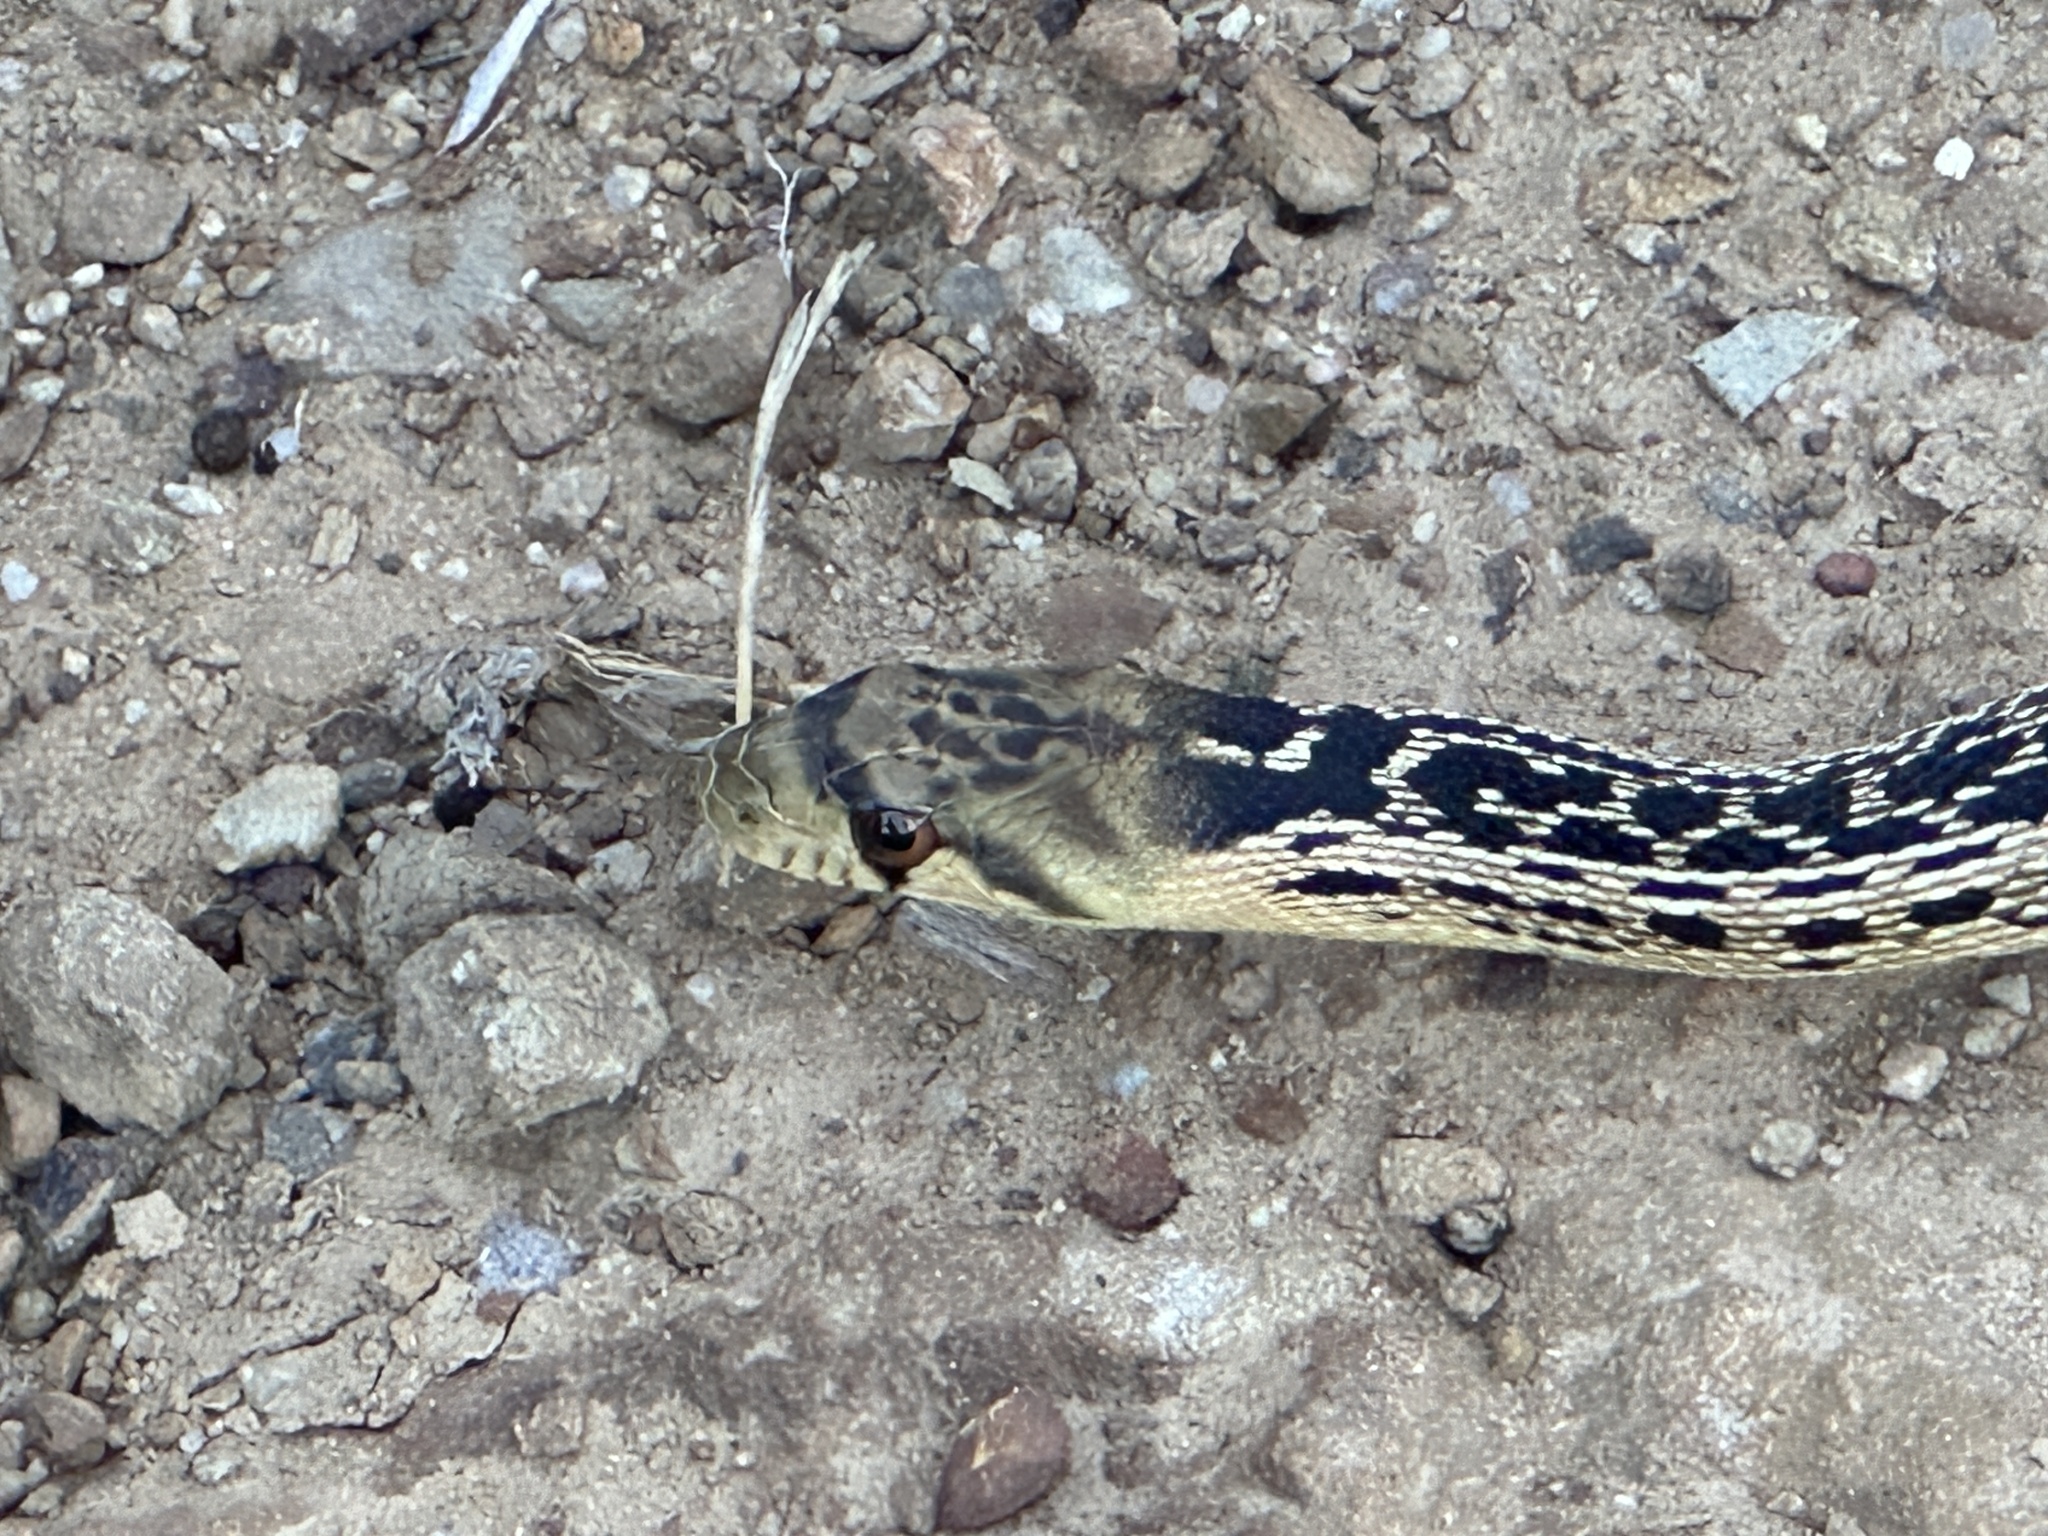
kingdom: Animalia
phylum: Chordata
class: Squamata
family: Colubridae
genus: Pituophis
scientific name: Pituophis catenifer
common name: Gopher snake
